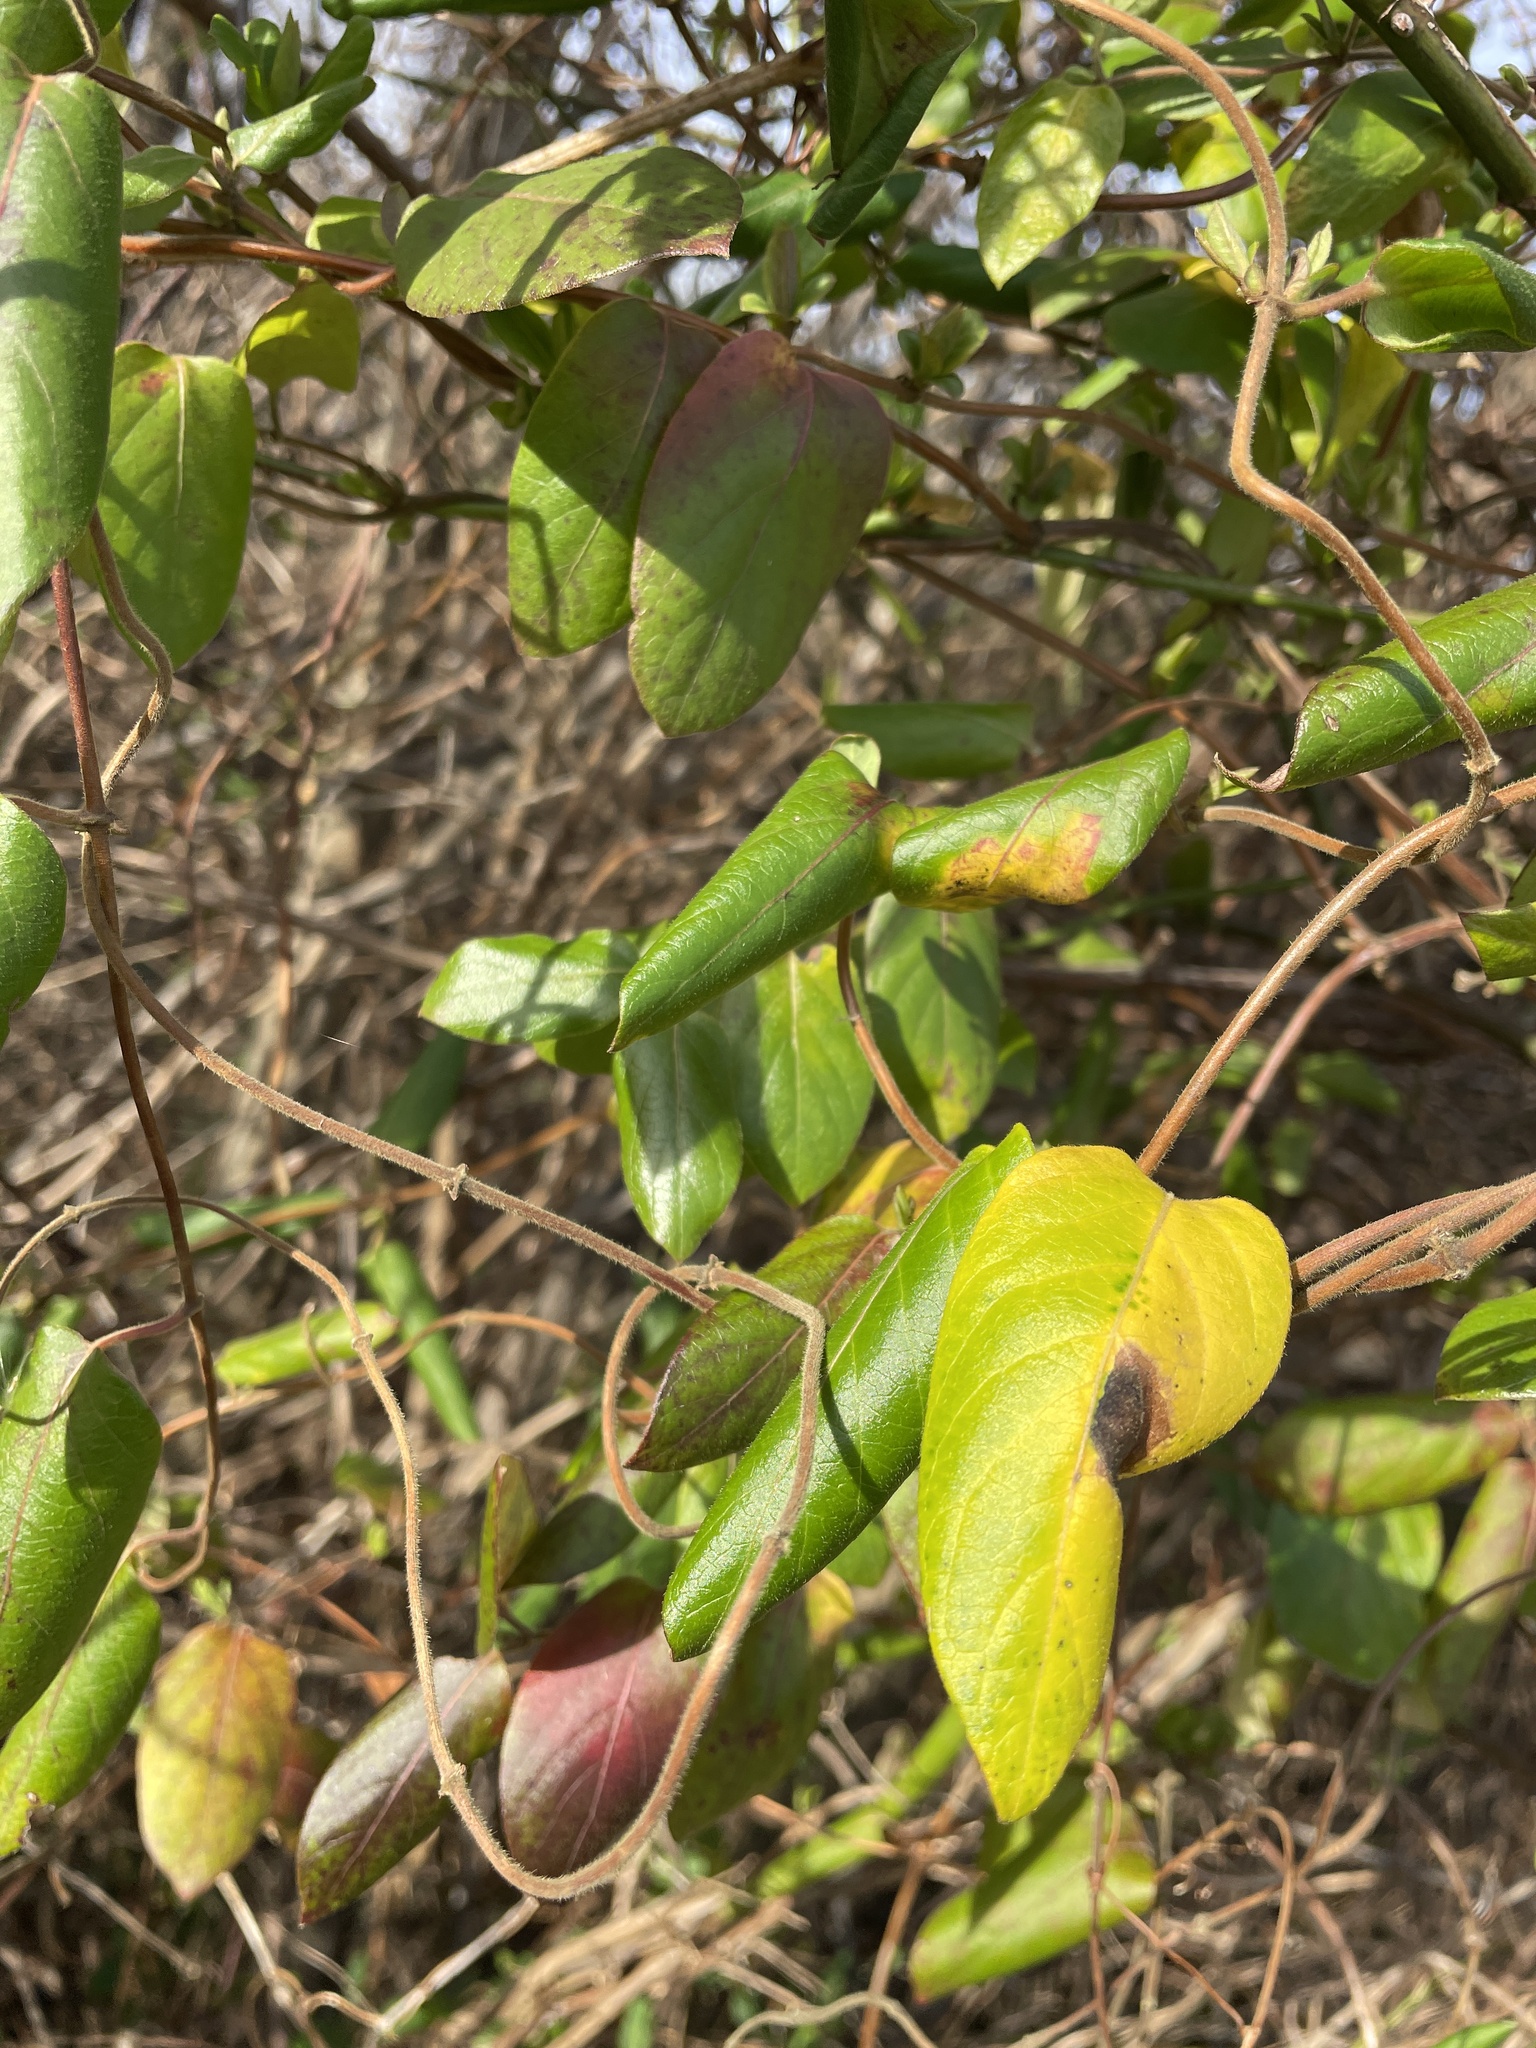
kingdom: Plantae
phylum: Tracheophyta
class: Magnoliopsida
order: Dipsacales
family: Caprifoliaceae
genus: Lonicera
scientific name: Lonicera japonica
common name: Japanese honeysuckle
